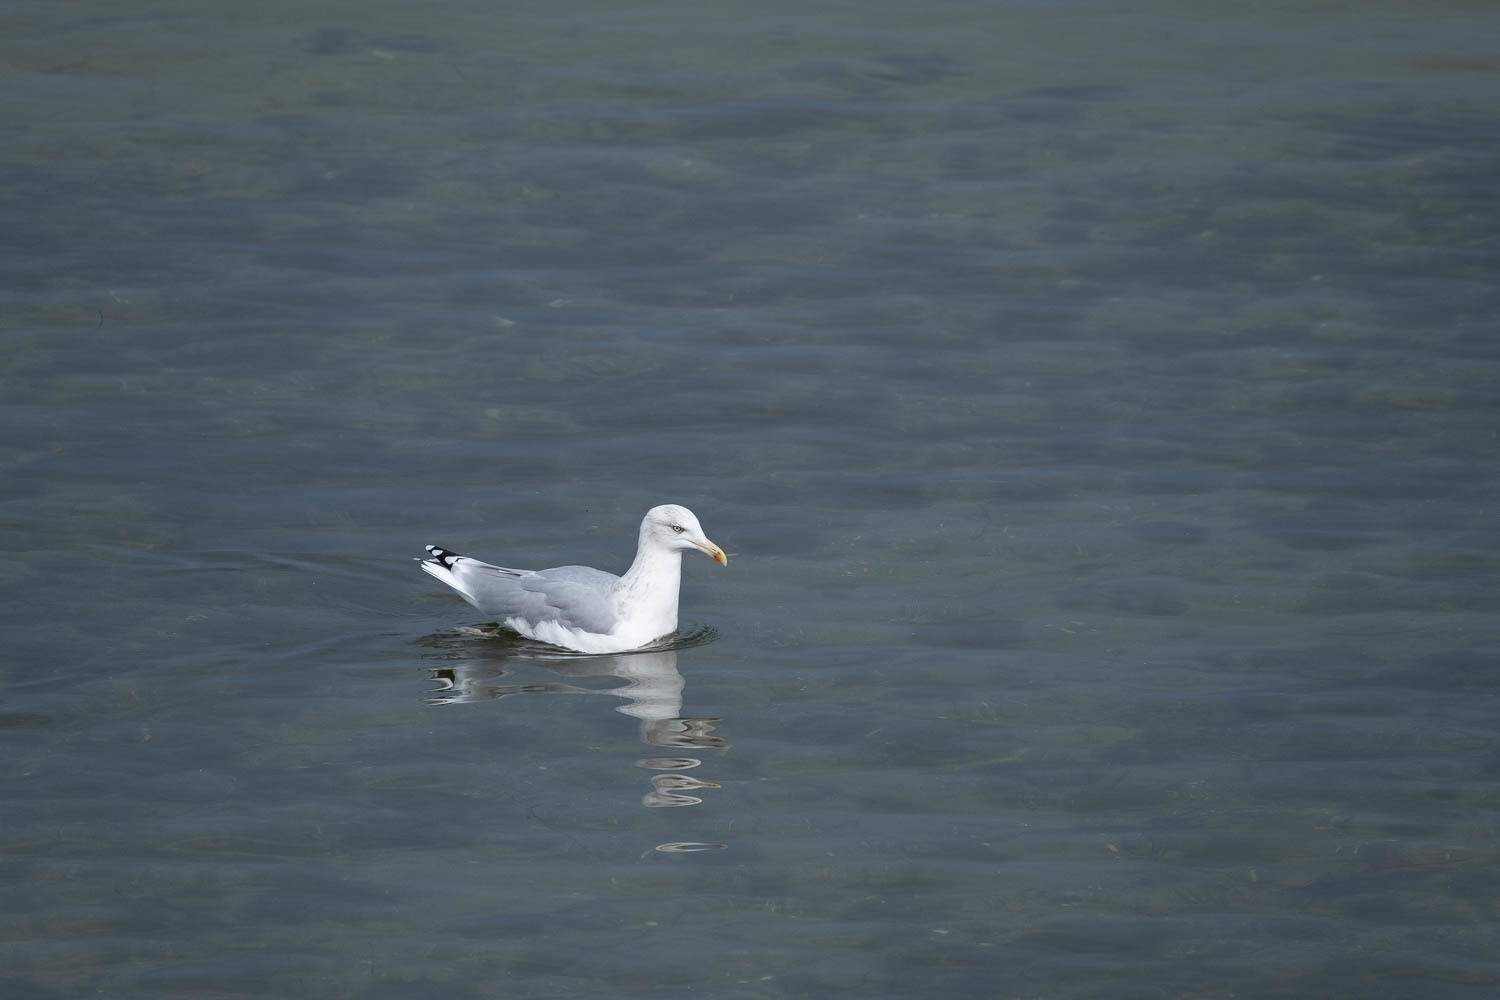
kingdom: Animalia
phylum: Chordata
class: Aves
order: Charadriiformes
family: Laridae
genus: Larus
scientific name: Larus argentatus
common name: Herring gull
